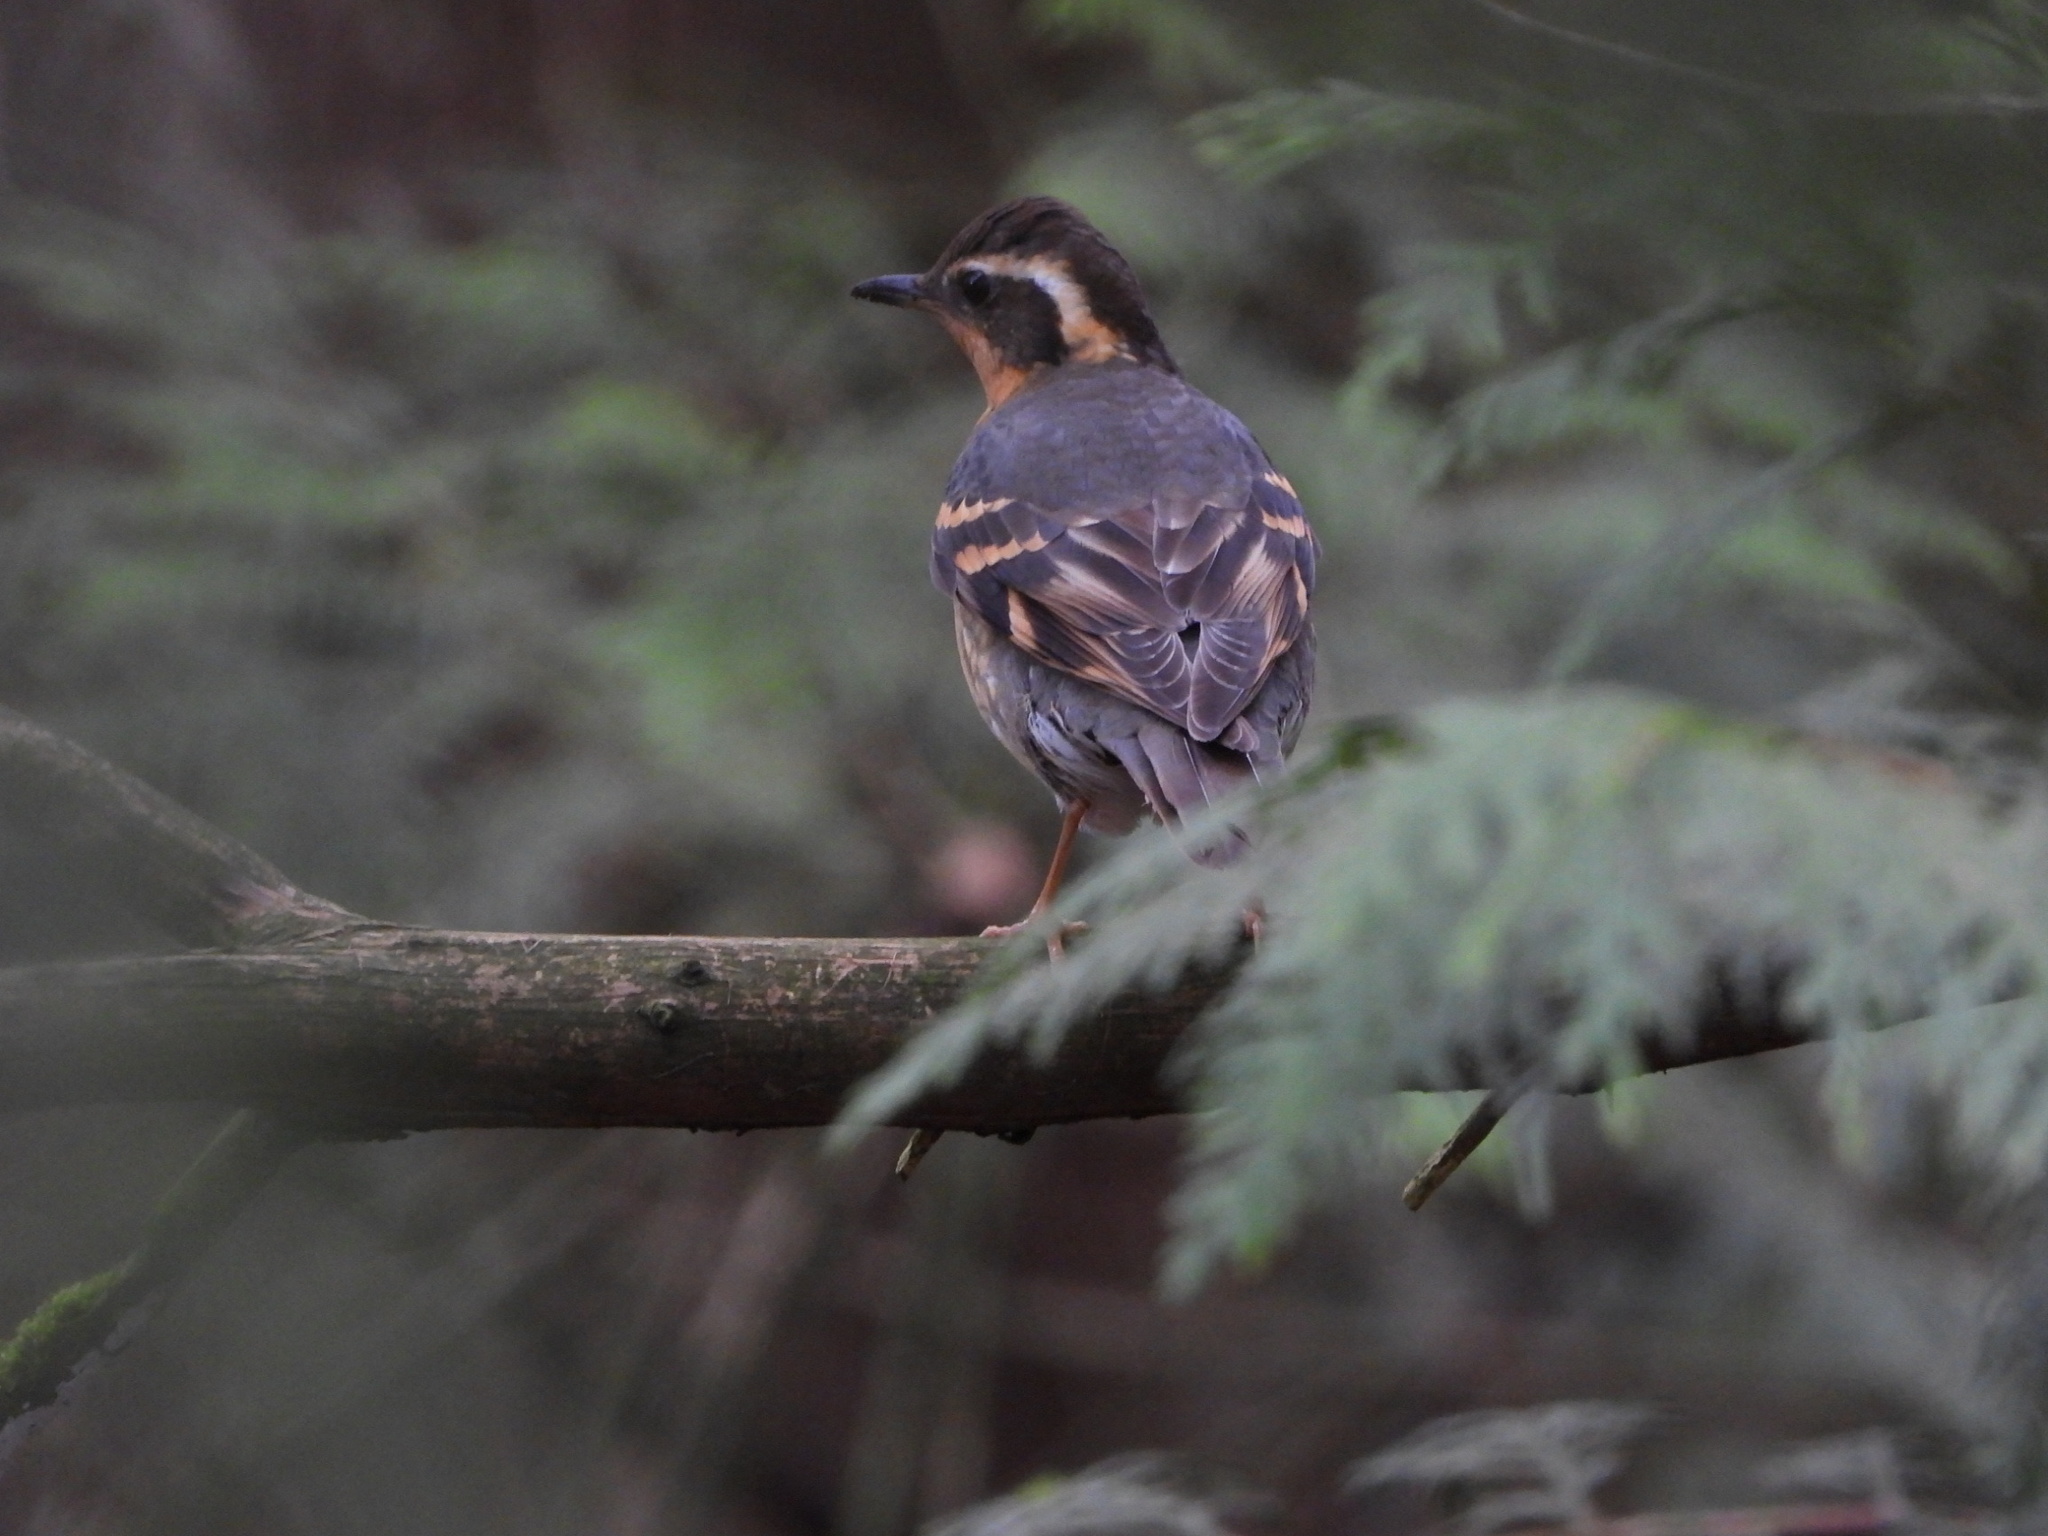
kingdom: Animalia
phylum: Chordata
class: Aves
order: Passeriformes
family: Turdidae
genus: Ixoreus
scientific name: Ixoreus naevius
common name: Varied thrush
